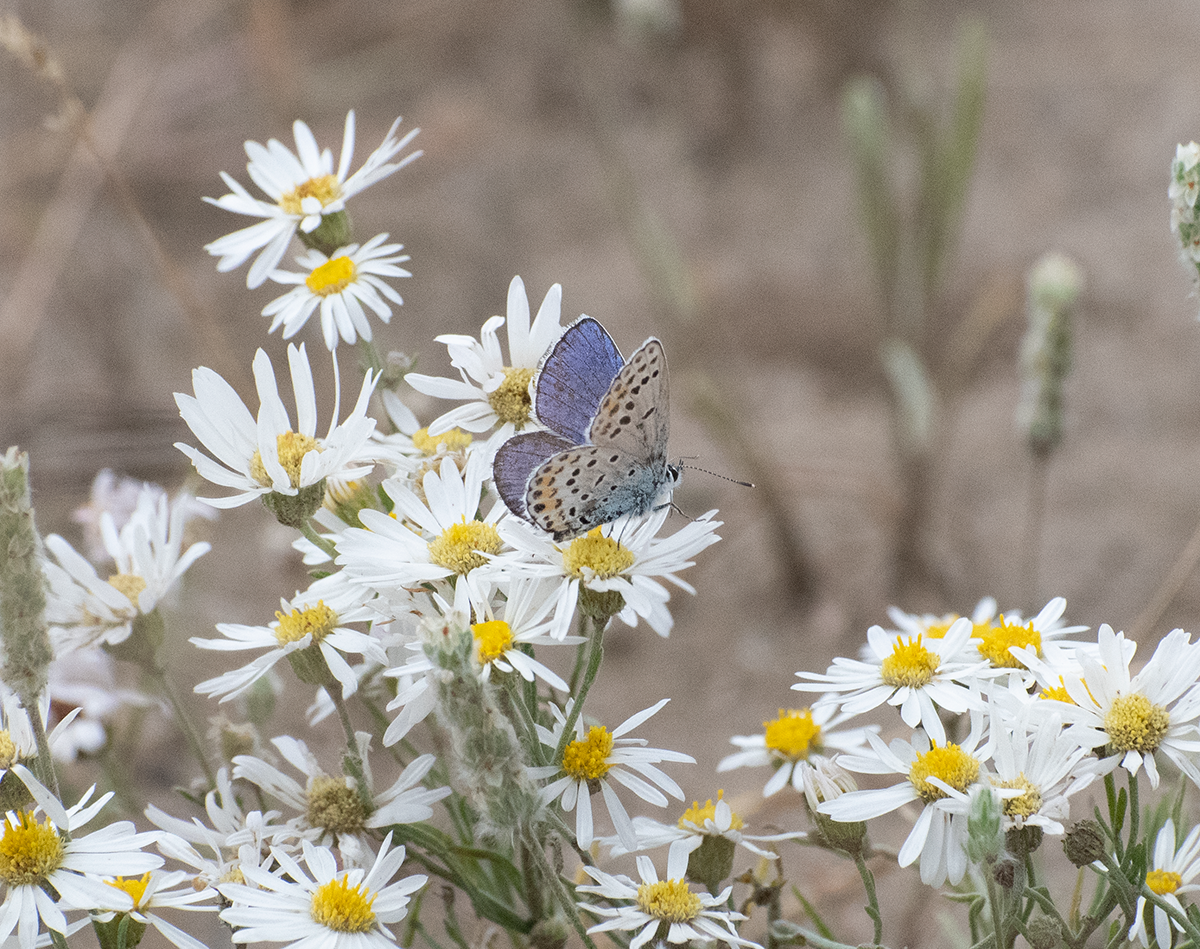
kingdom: Animalia
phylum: Arthropoda
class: Insecta
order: Lepidoptera
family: Lycaenidae
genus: Lycaeides
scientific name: Lycaeides melissa
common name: Melissa blue
